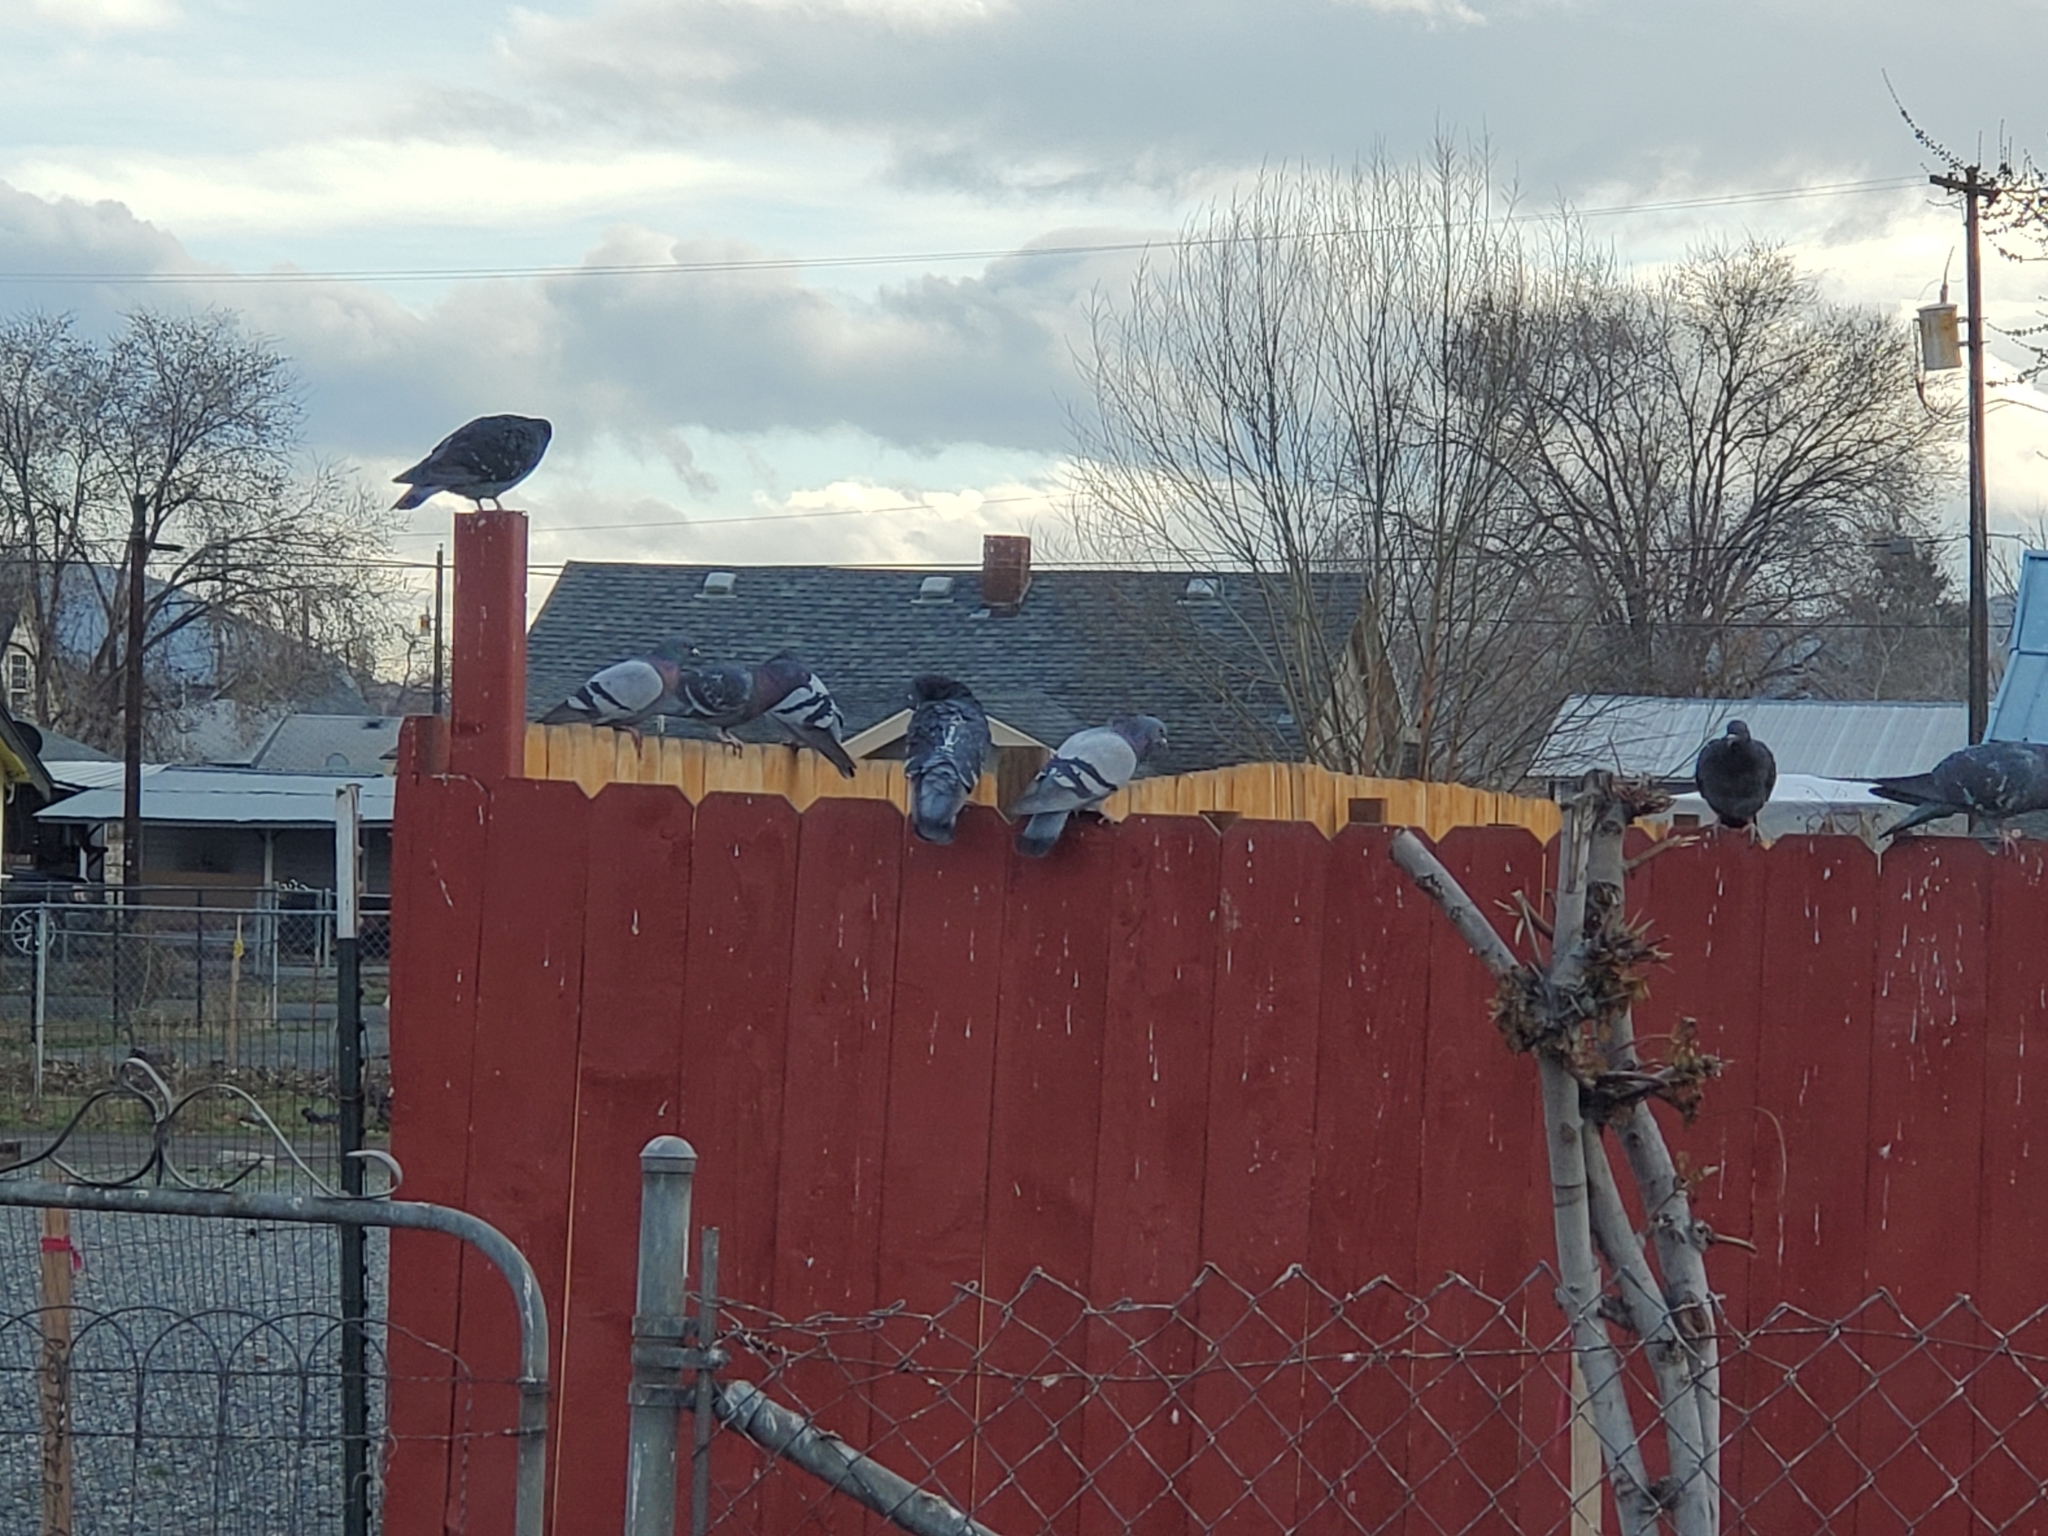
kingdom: Animalia
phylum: Chordata
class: Aves
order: Columbiformes
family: Columbidae
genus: Columba
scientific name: Columba livia
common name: Rock pigeon
